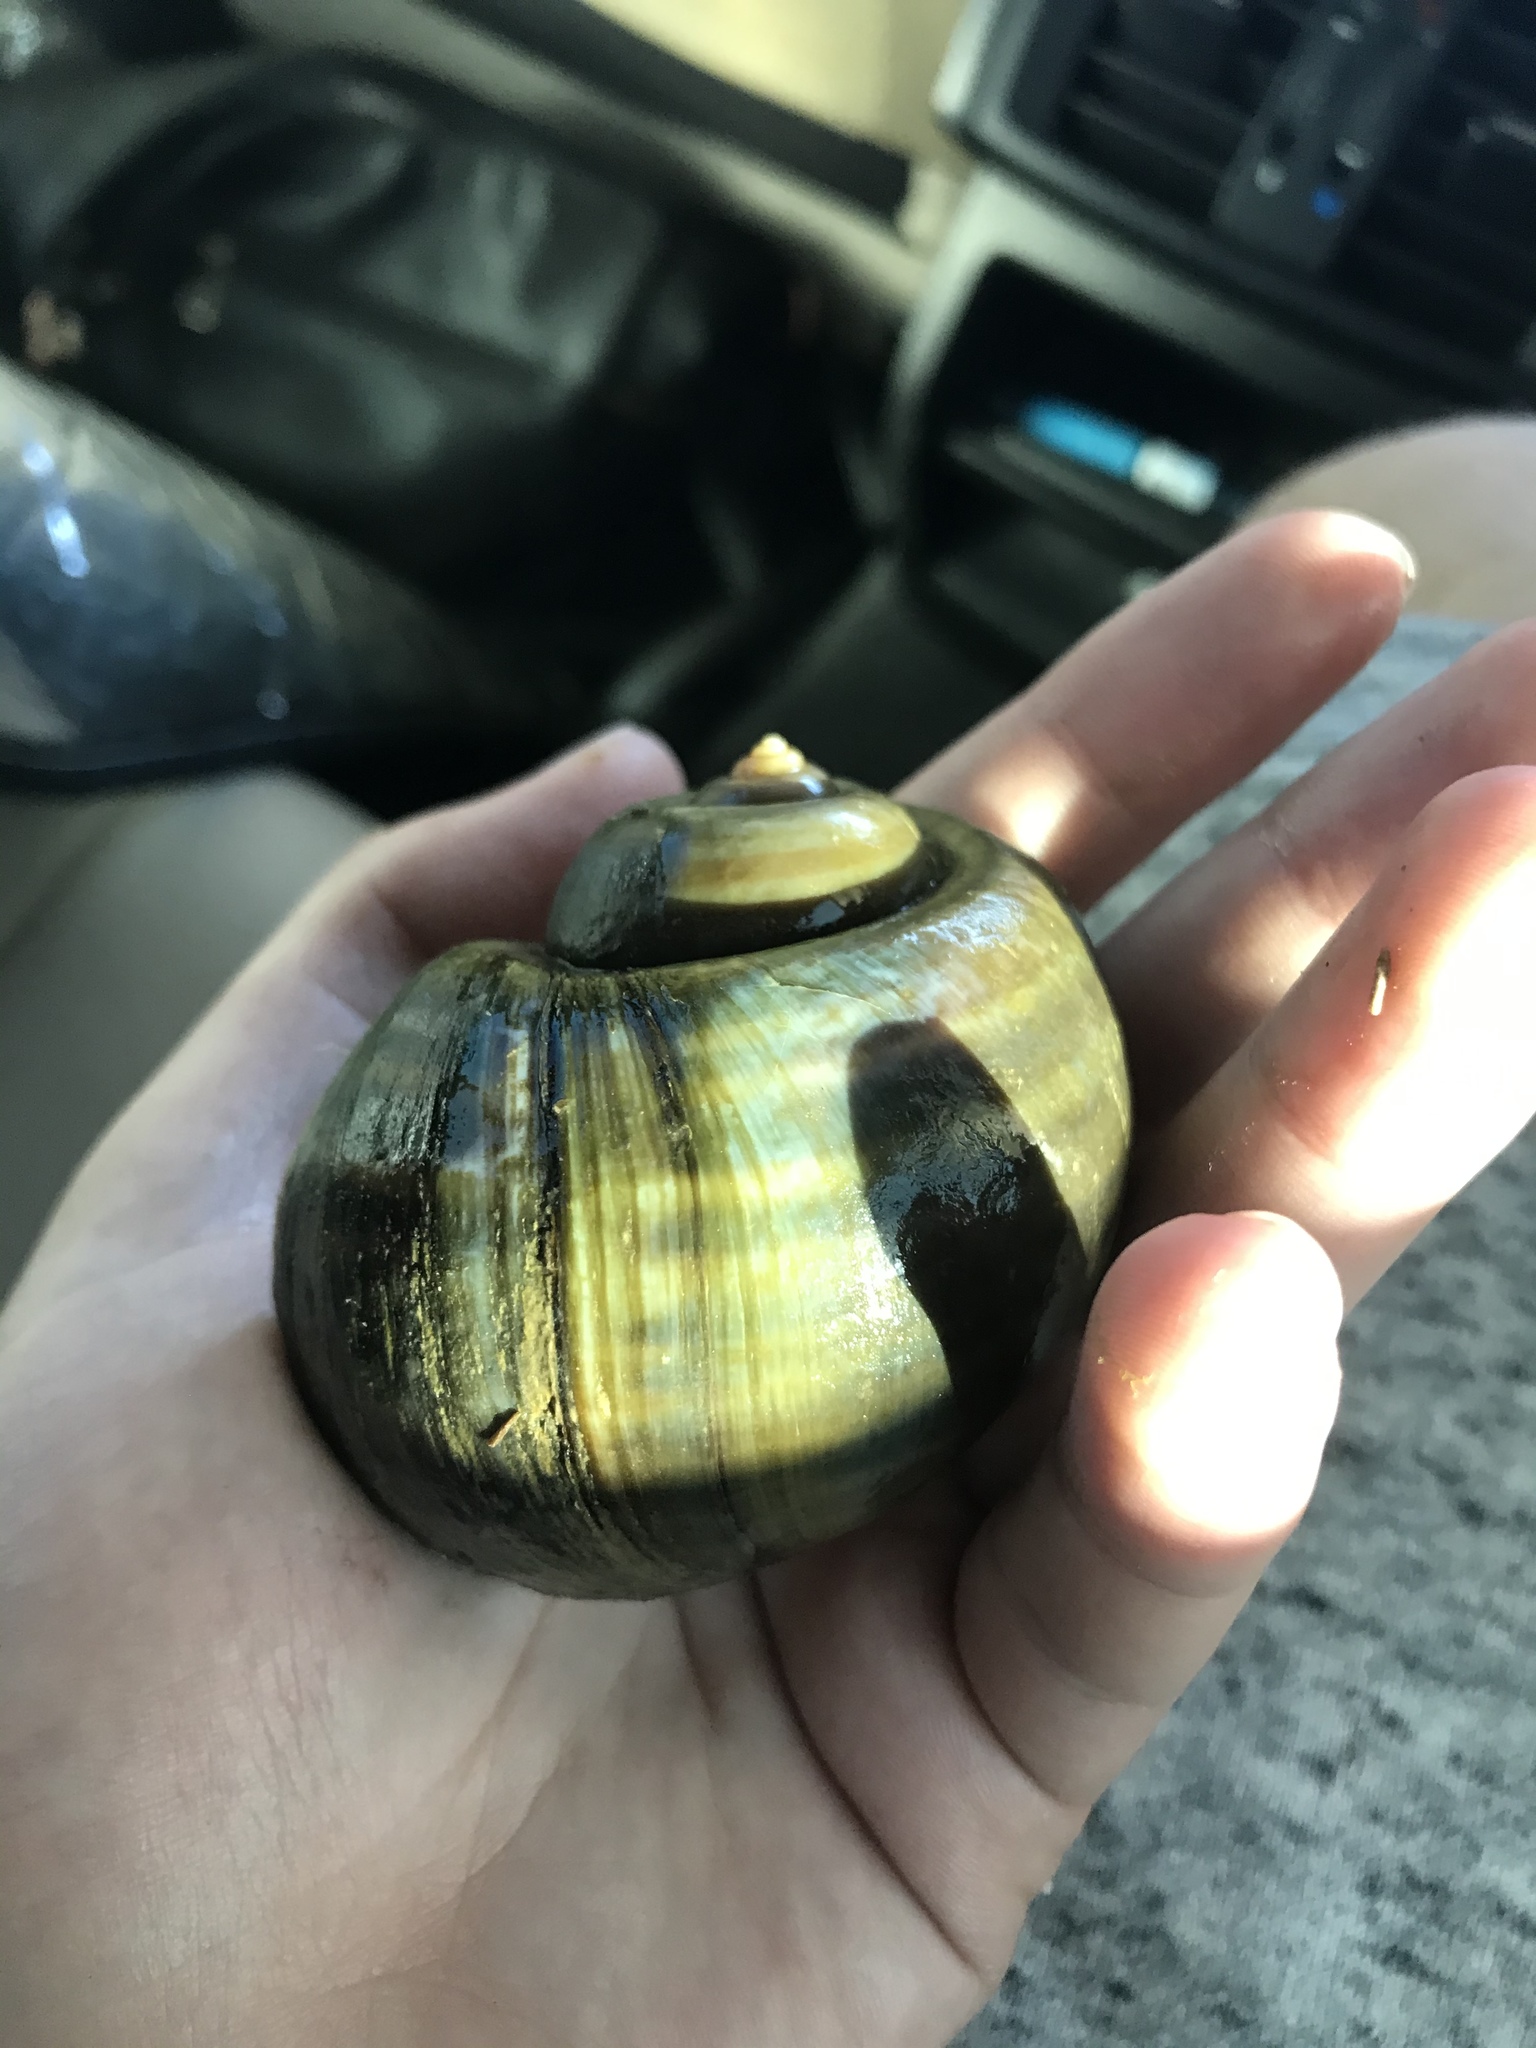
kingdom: Animalia
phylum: Mollusca
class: Gastropoda
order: Architaenioglossa
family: Ampullariidae
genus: Pomacea
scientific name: Pomacea canaliculata
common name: Channeled applesnail
